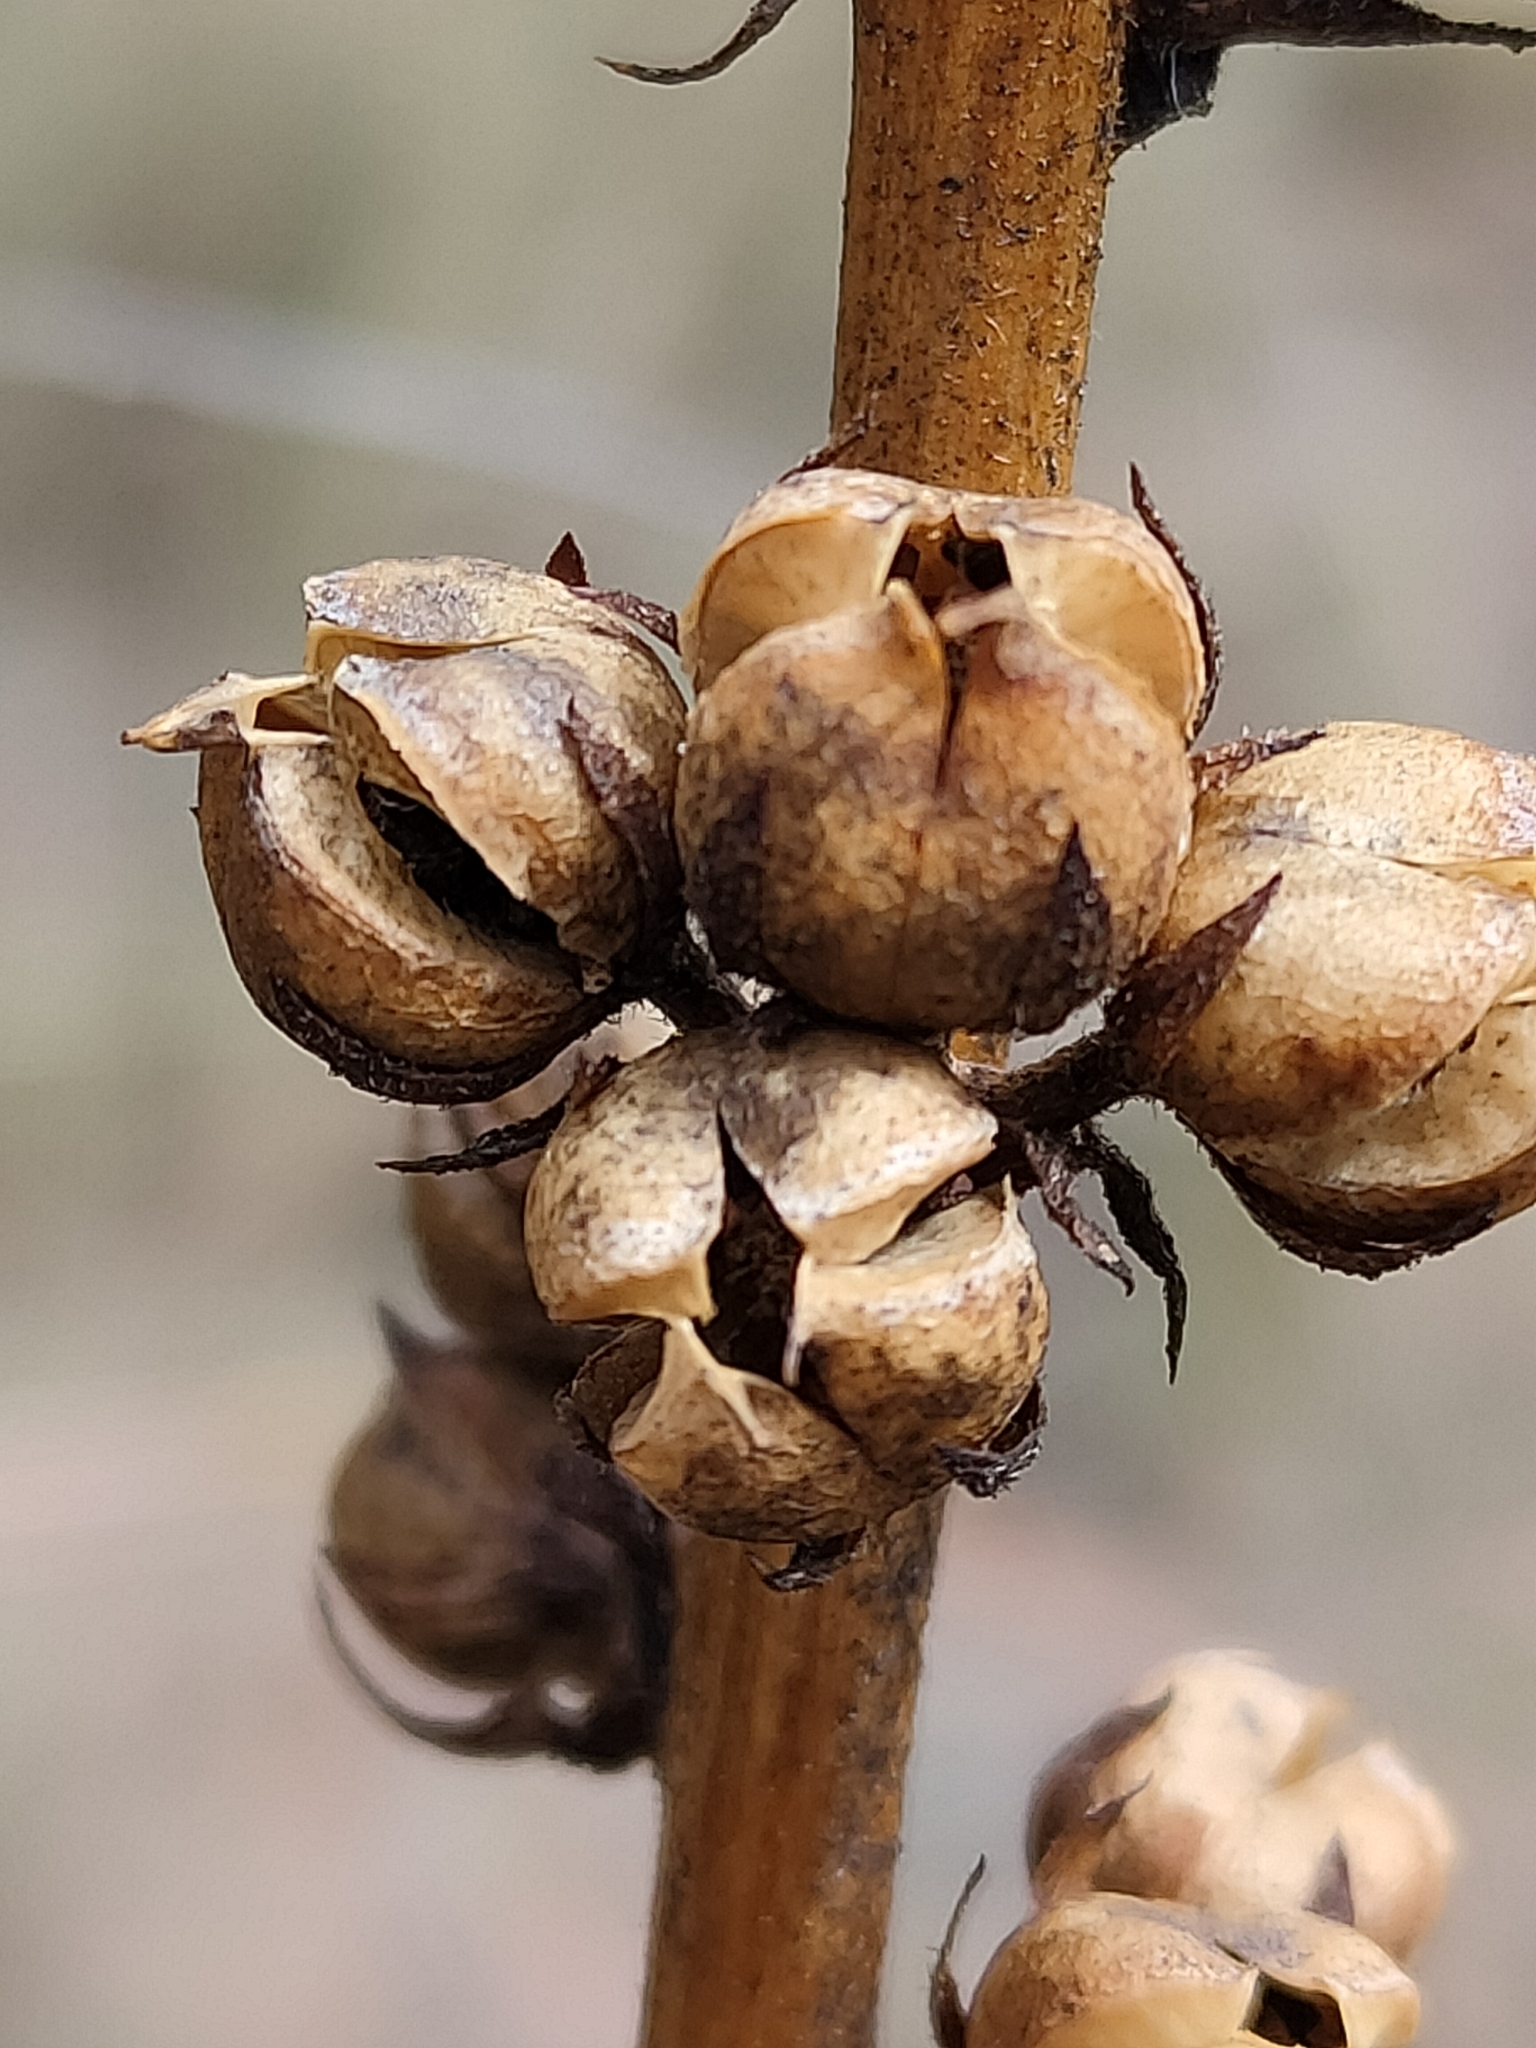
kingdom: Plantae
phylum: Tracheophyta
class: Magnoliopsida
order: Lamiales
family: Scrophulariaceae
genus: Verbascum
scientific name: Verbascum virgatum
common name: Twiggy mullein
